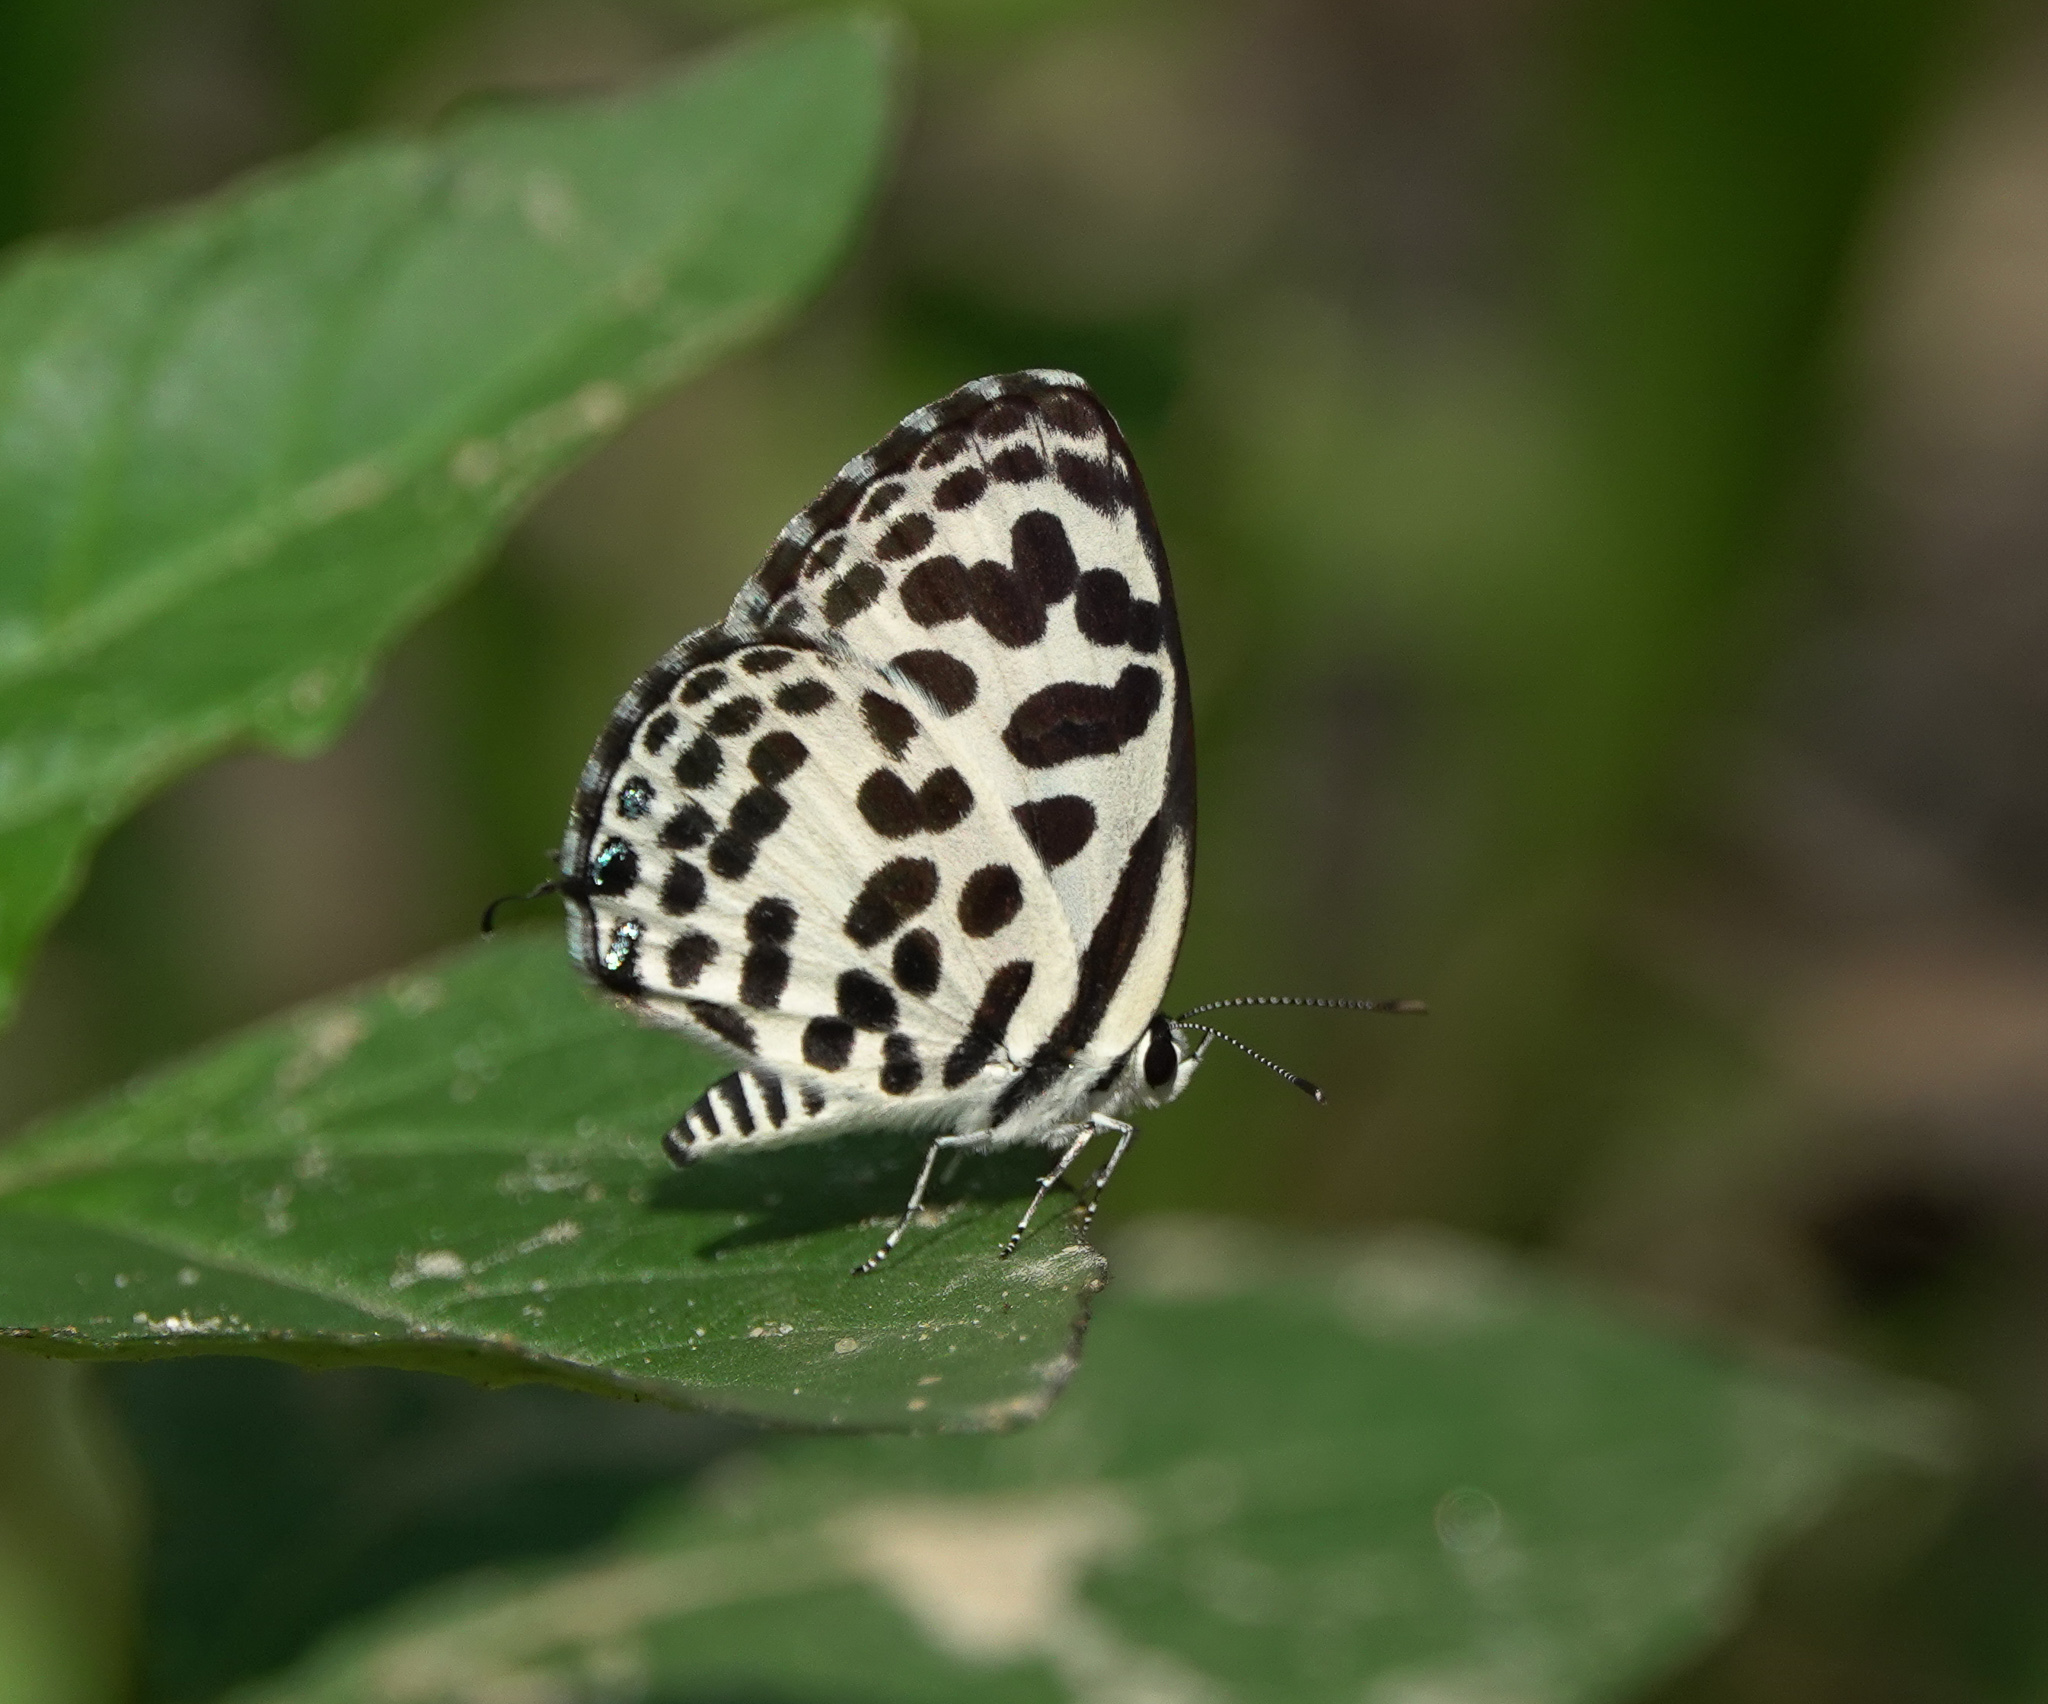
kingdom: Animalia
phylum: Arthropoda
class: Insecta
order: Lepidoptera
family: Lycaenidae
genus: Castalius
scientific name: Castalius rosimon
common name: Common pierrot
